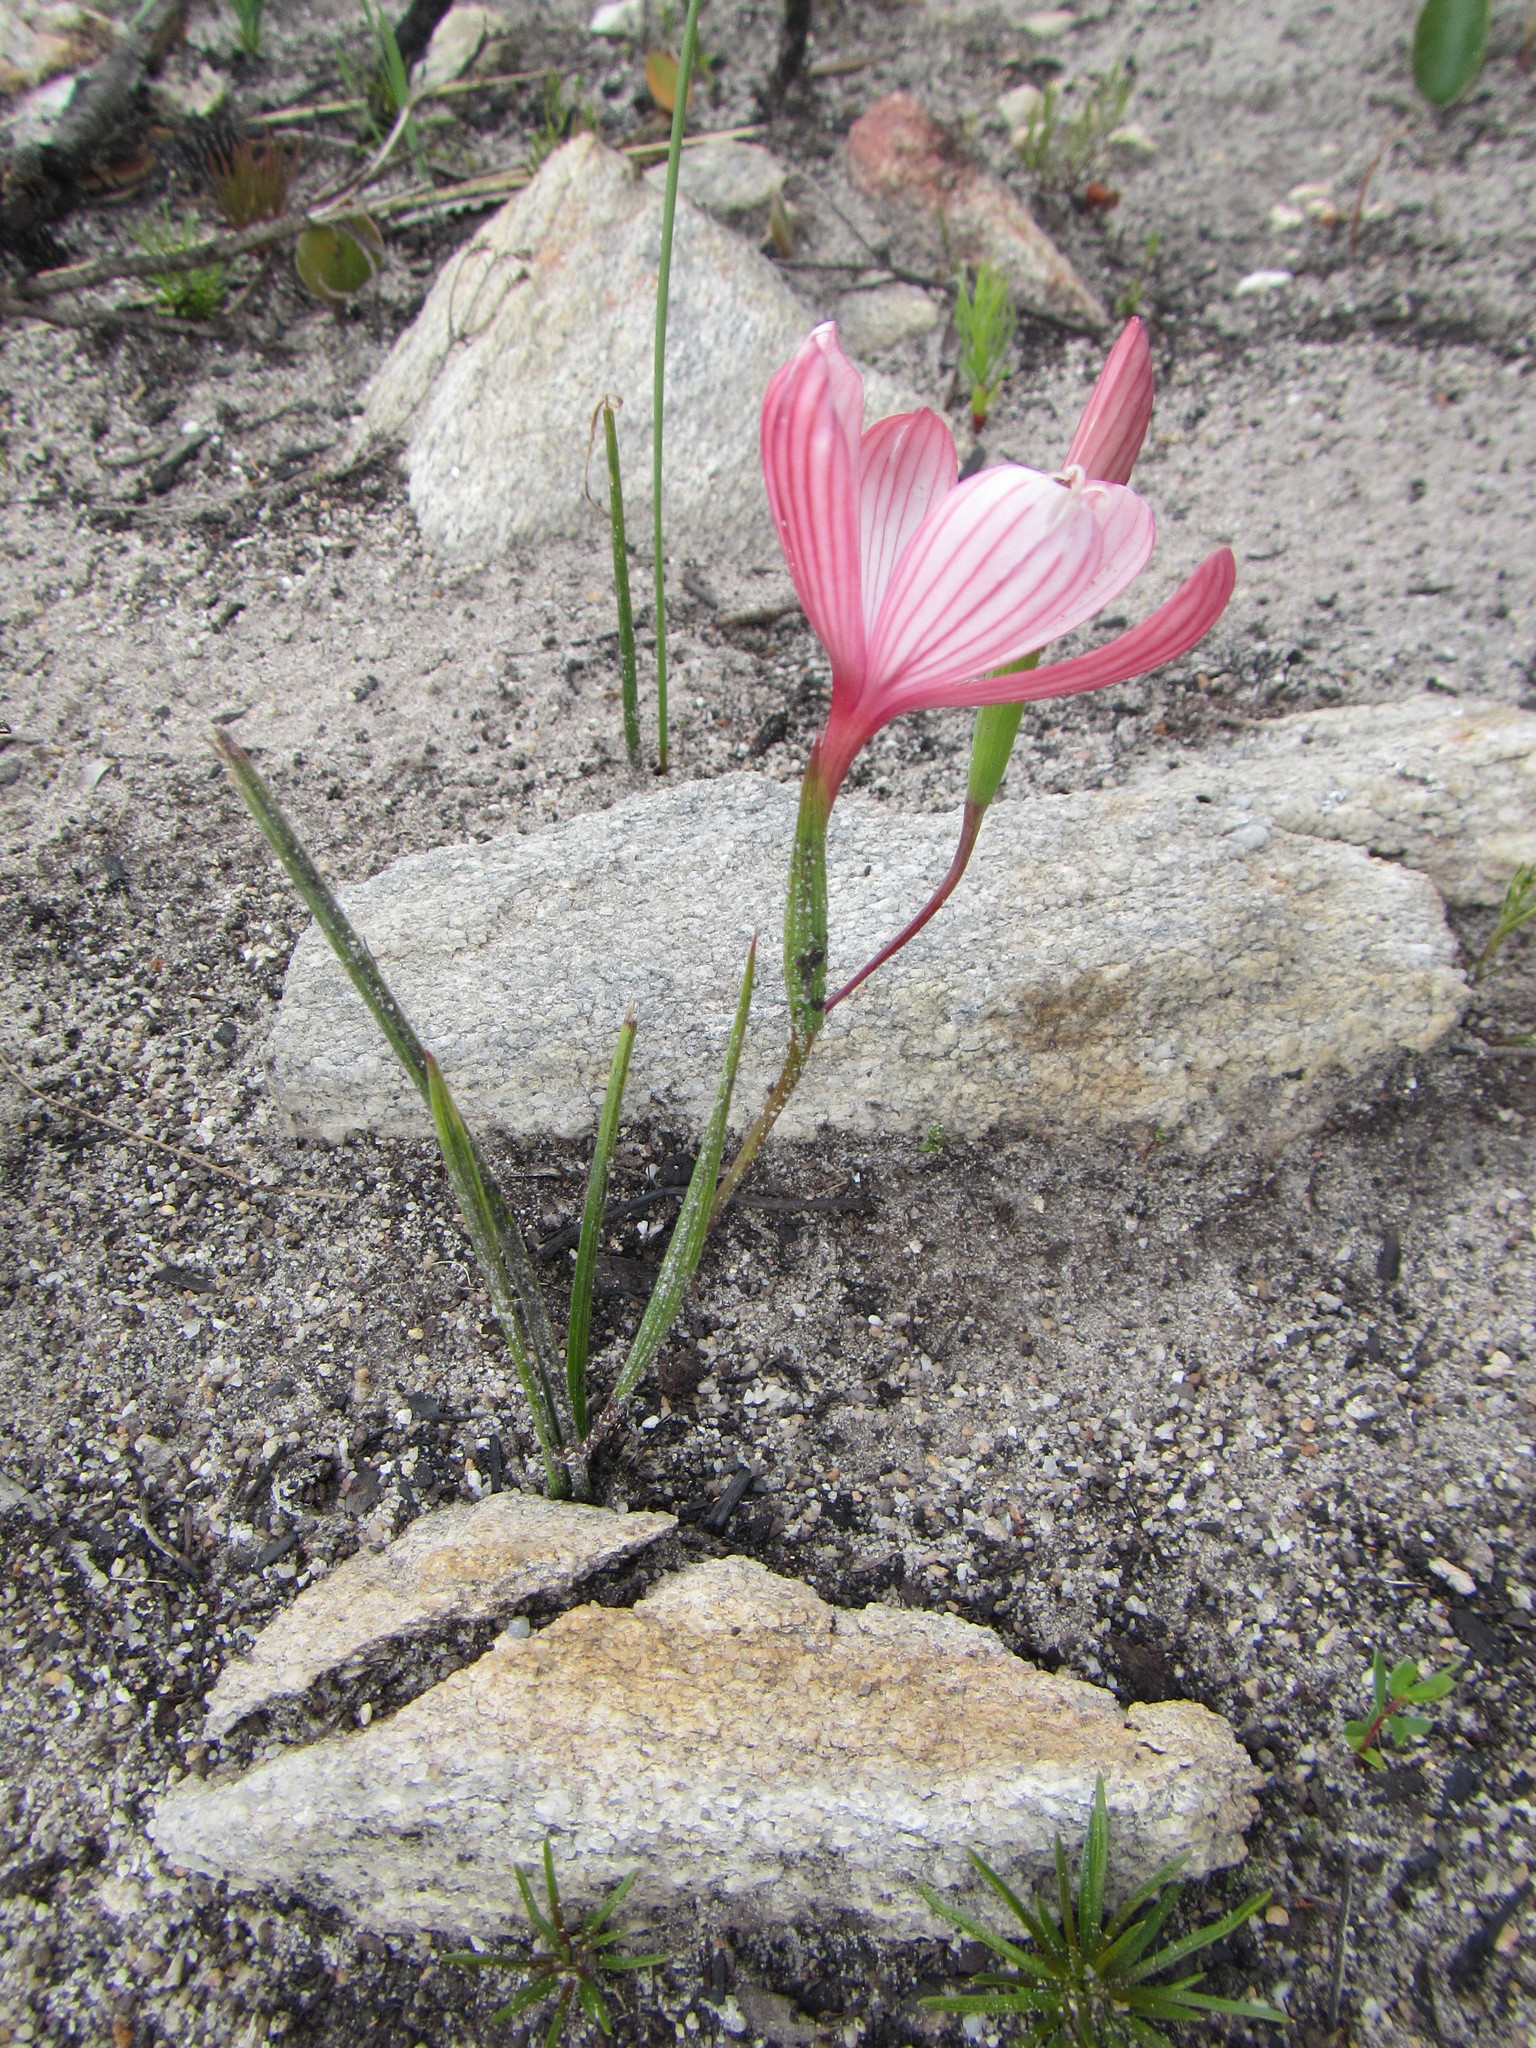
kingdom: Plantae
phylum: Tracheophyta
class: Liliopsida
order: Asparagales
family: Iridaceae
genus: Geissorhiza
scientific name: Geissorhiza schinzii
